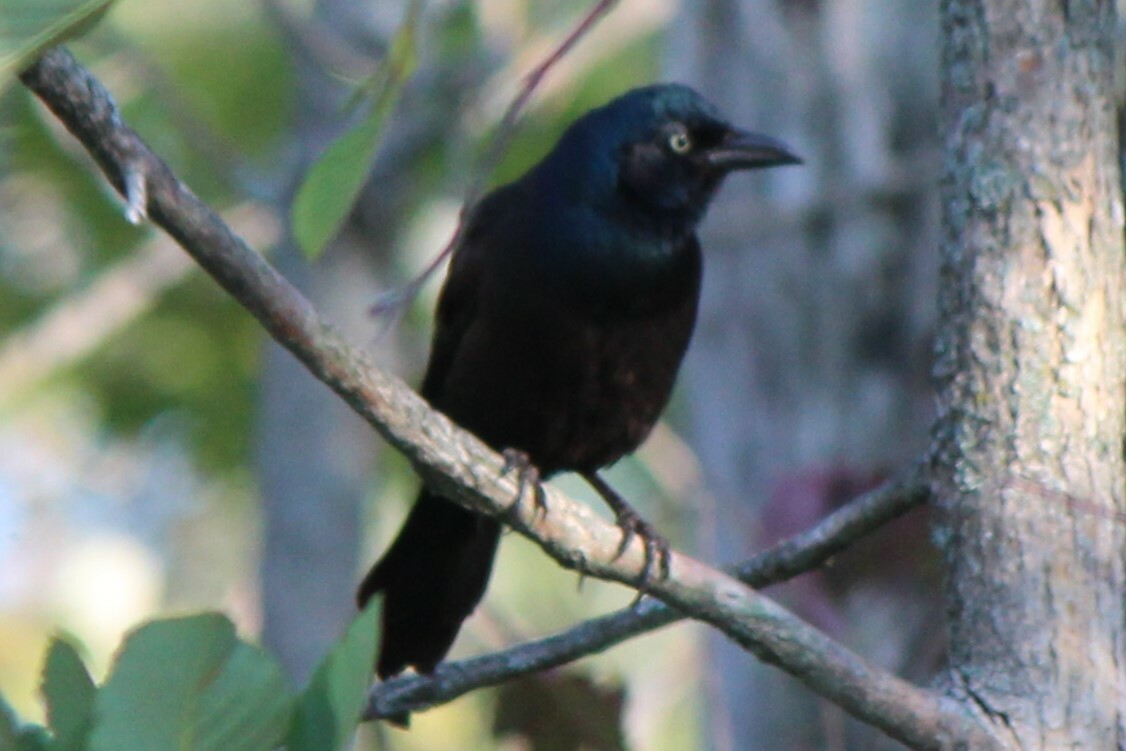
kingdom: Animalia
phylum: Chordata
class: Aves
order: Passeriformes
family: Icteridae
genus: Quiscalus
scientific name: Quiscalus quiscula
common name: Common grackle
